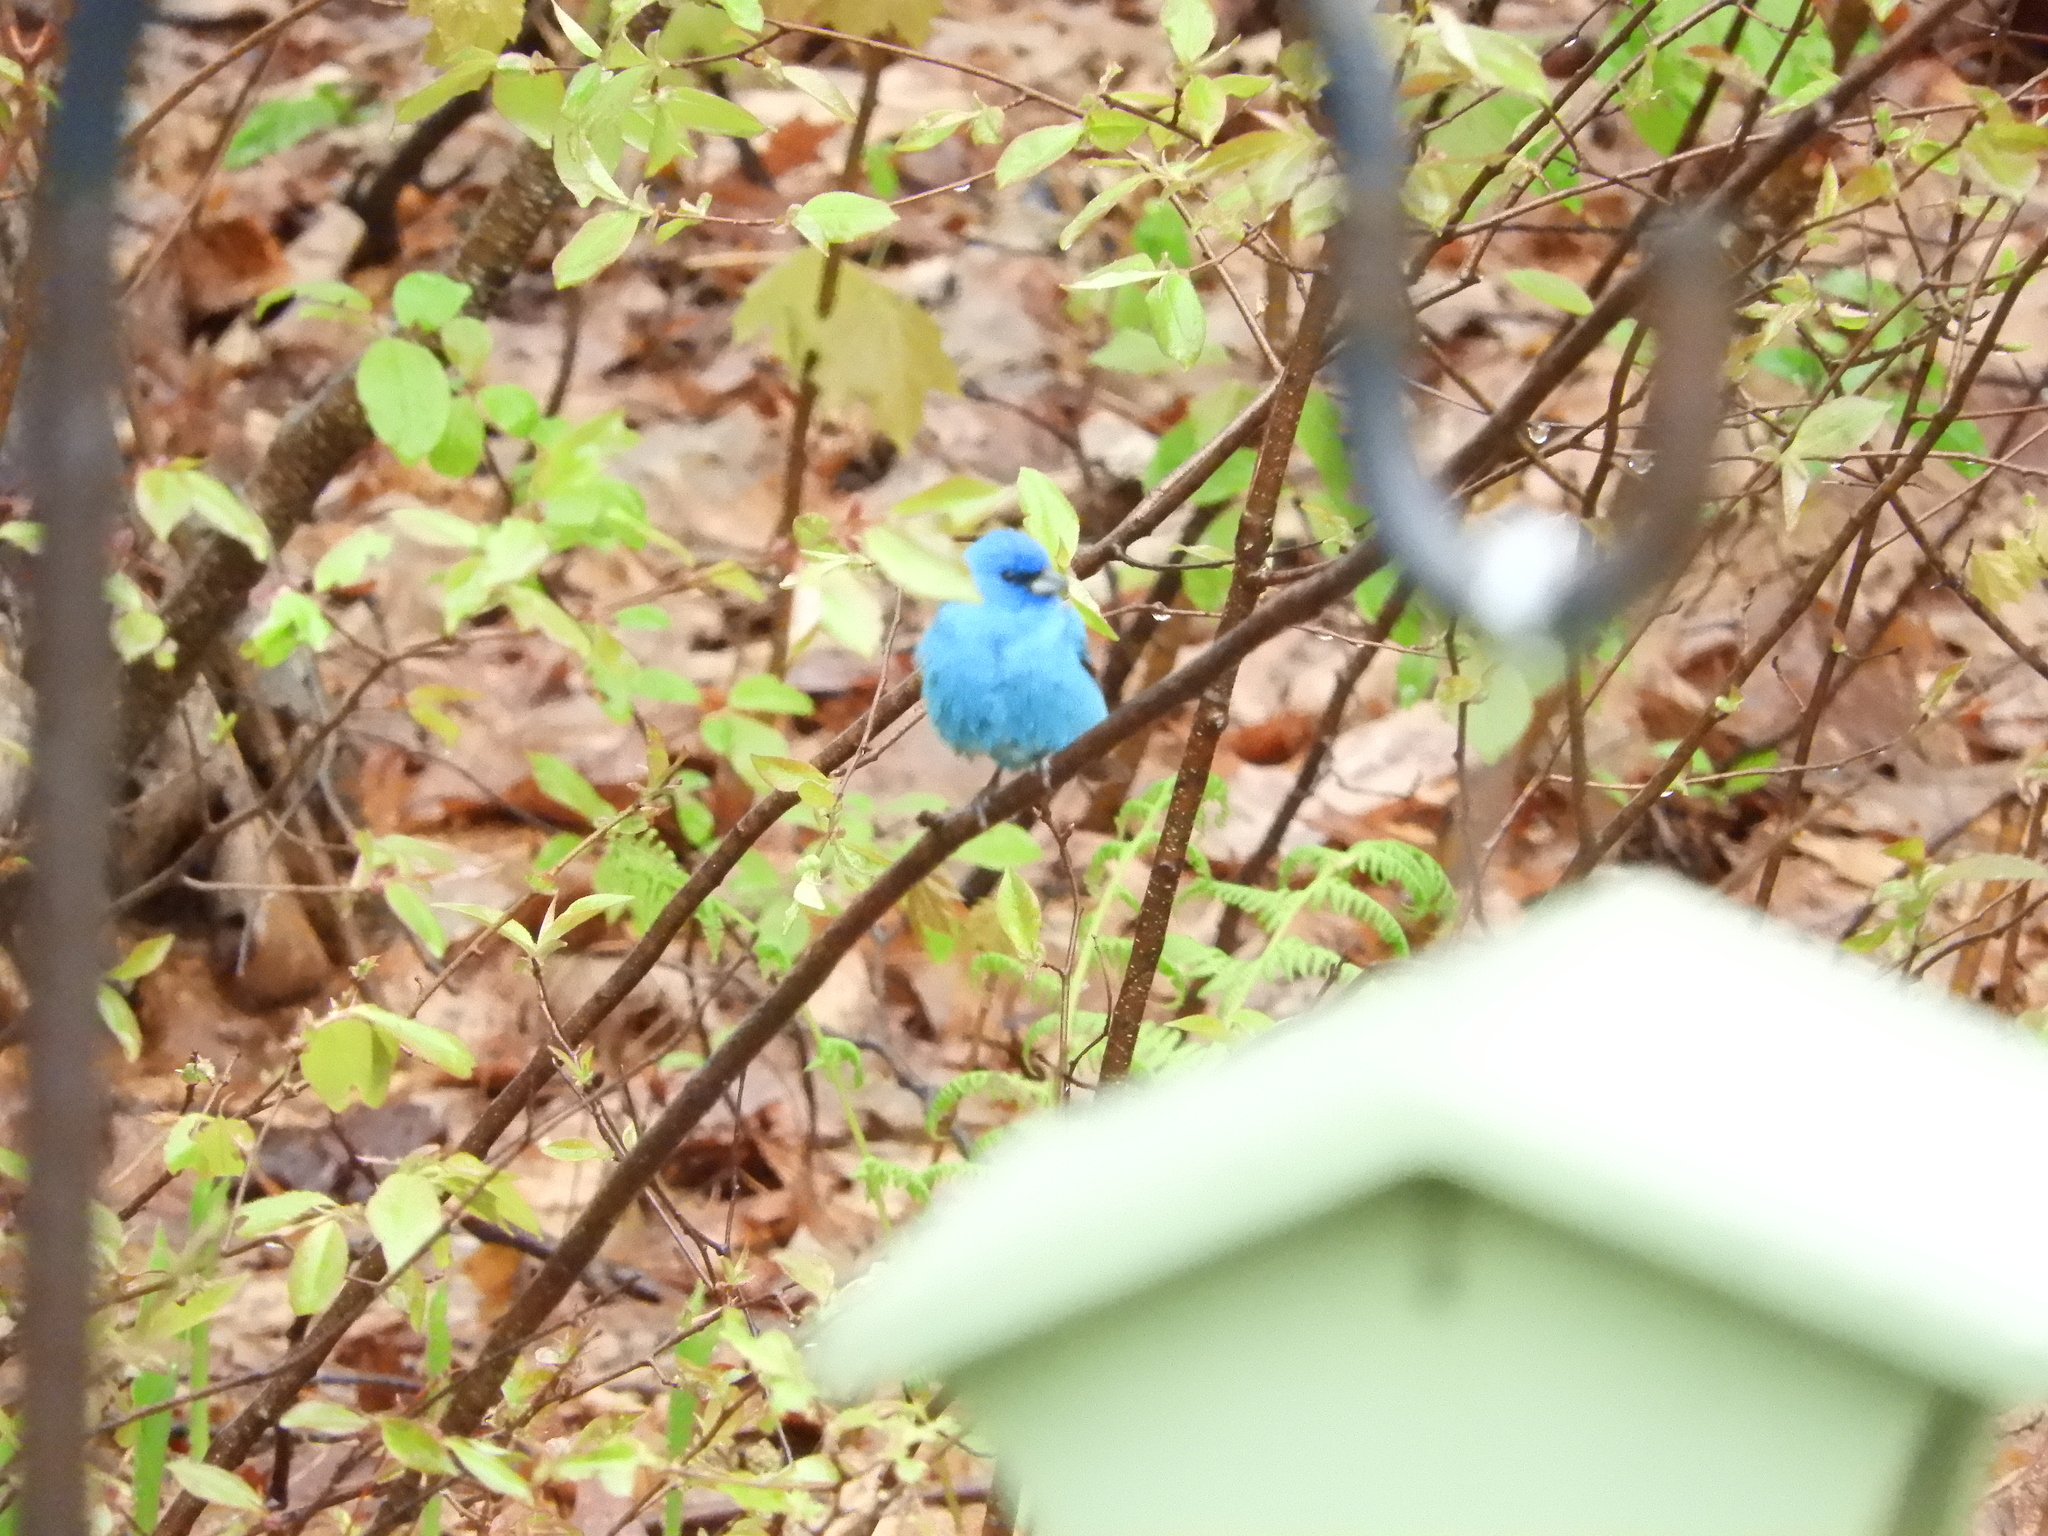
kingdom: Animalia
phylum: Chordata
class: Aves
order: Passeriformes
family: Cardinalidae
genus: Passerina
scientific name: Passerina cyanea
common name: Indigo bunting
